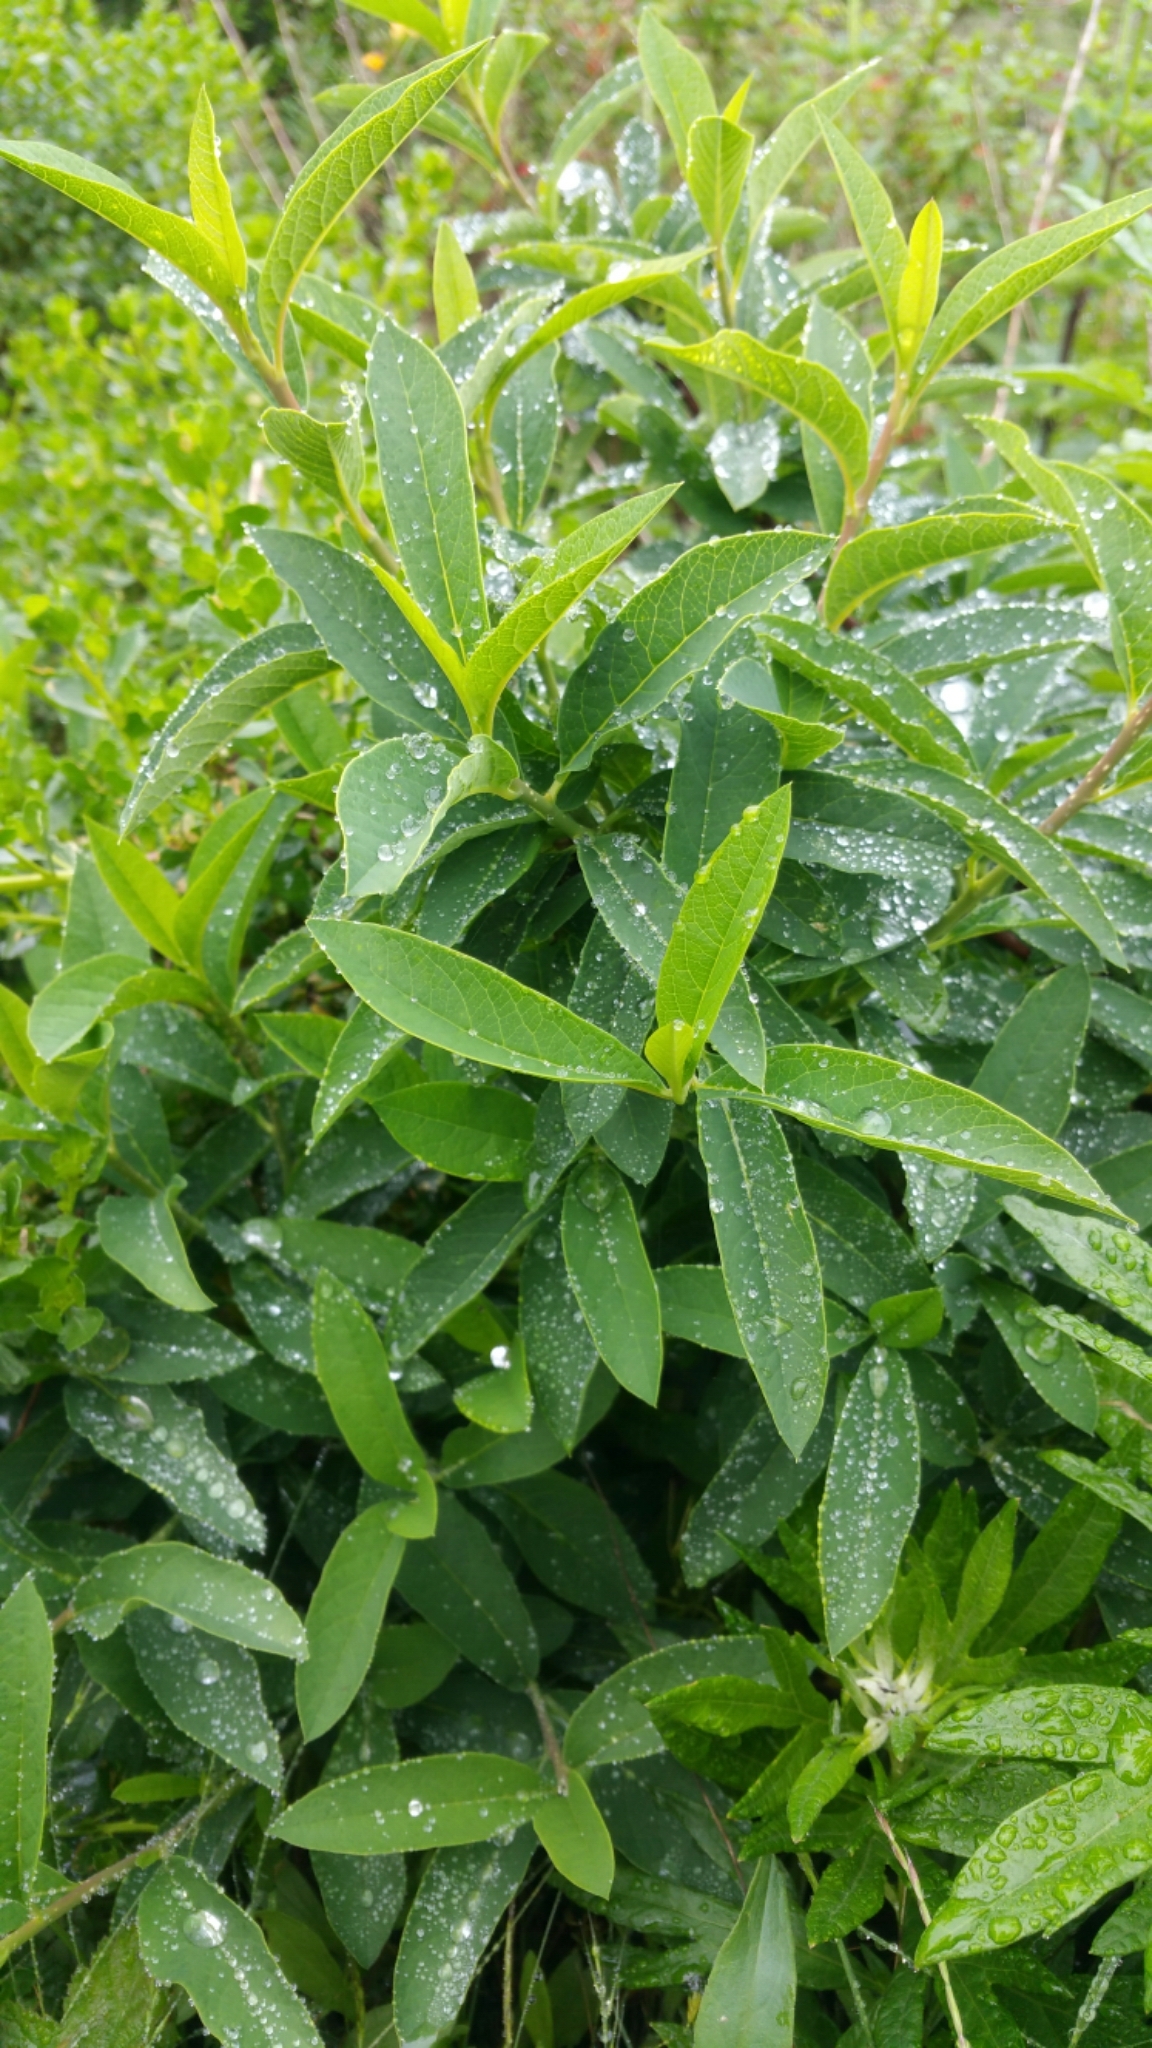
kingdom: Plantae
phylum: Tracheophyta
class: Magnoliopsida
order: Rosales
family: Rosaceae
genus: Oemleria
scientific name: Oemleria cerasiformis
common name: Osoberry
